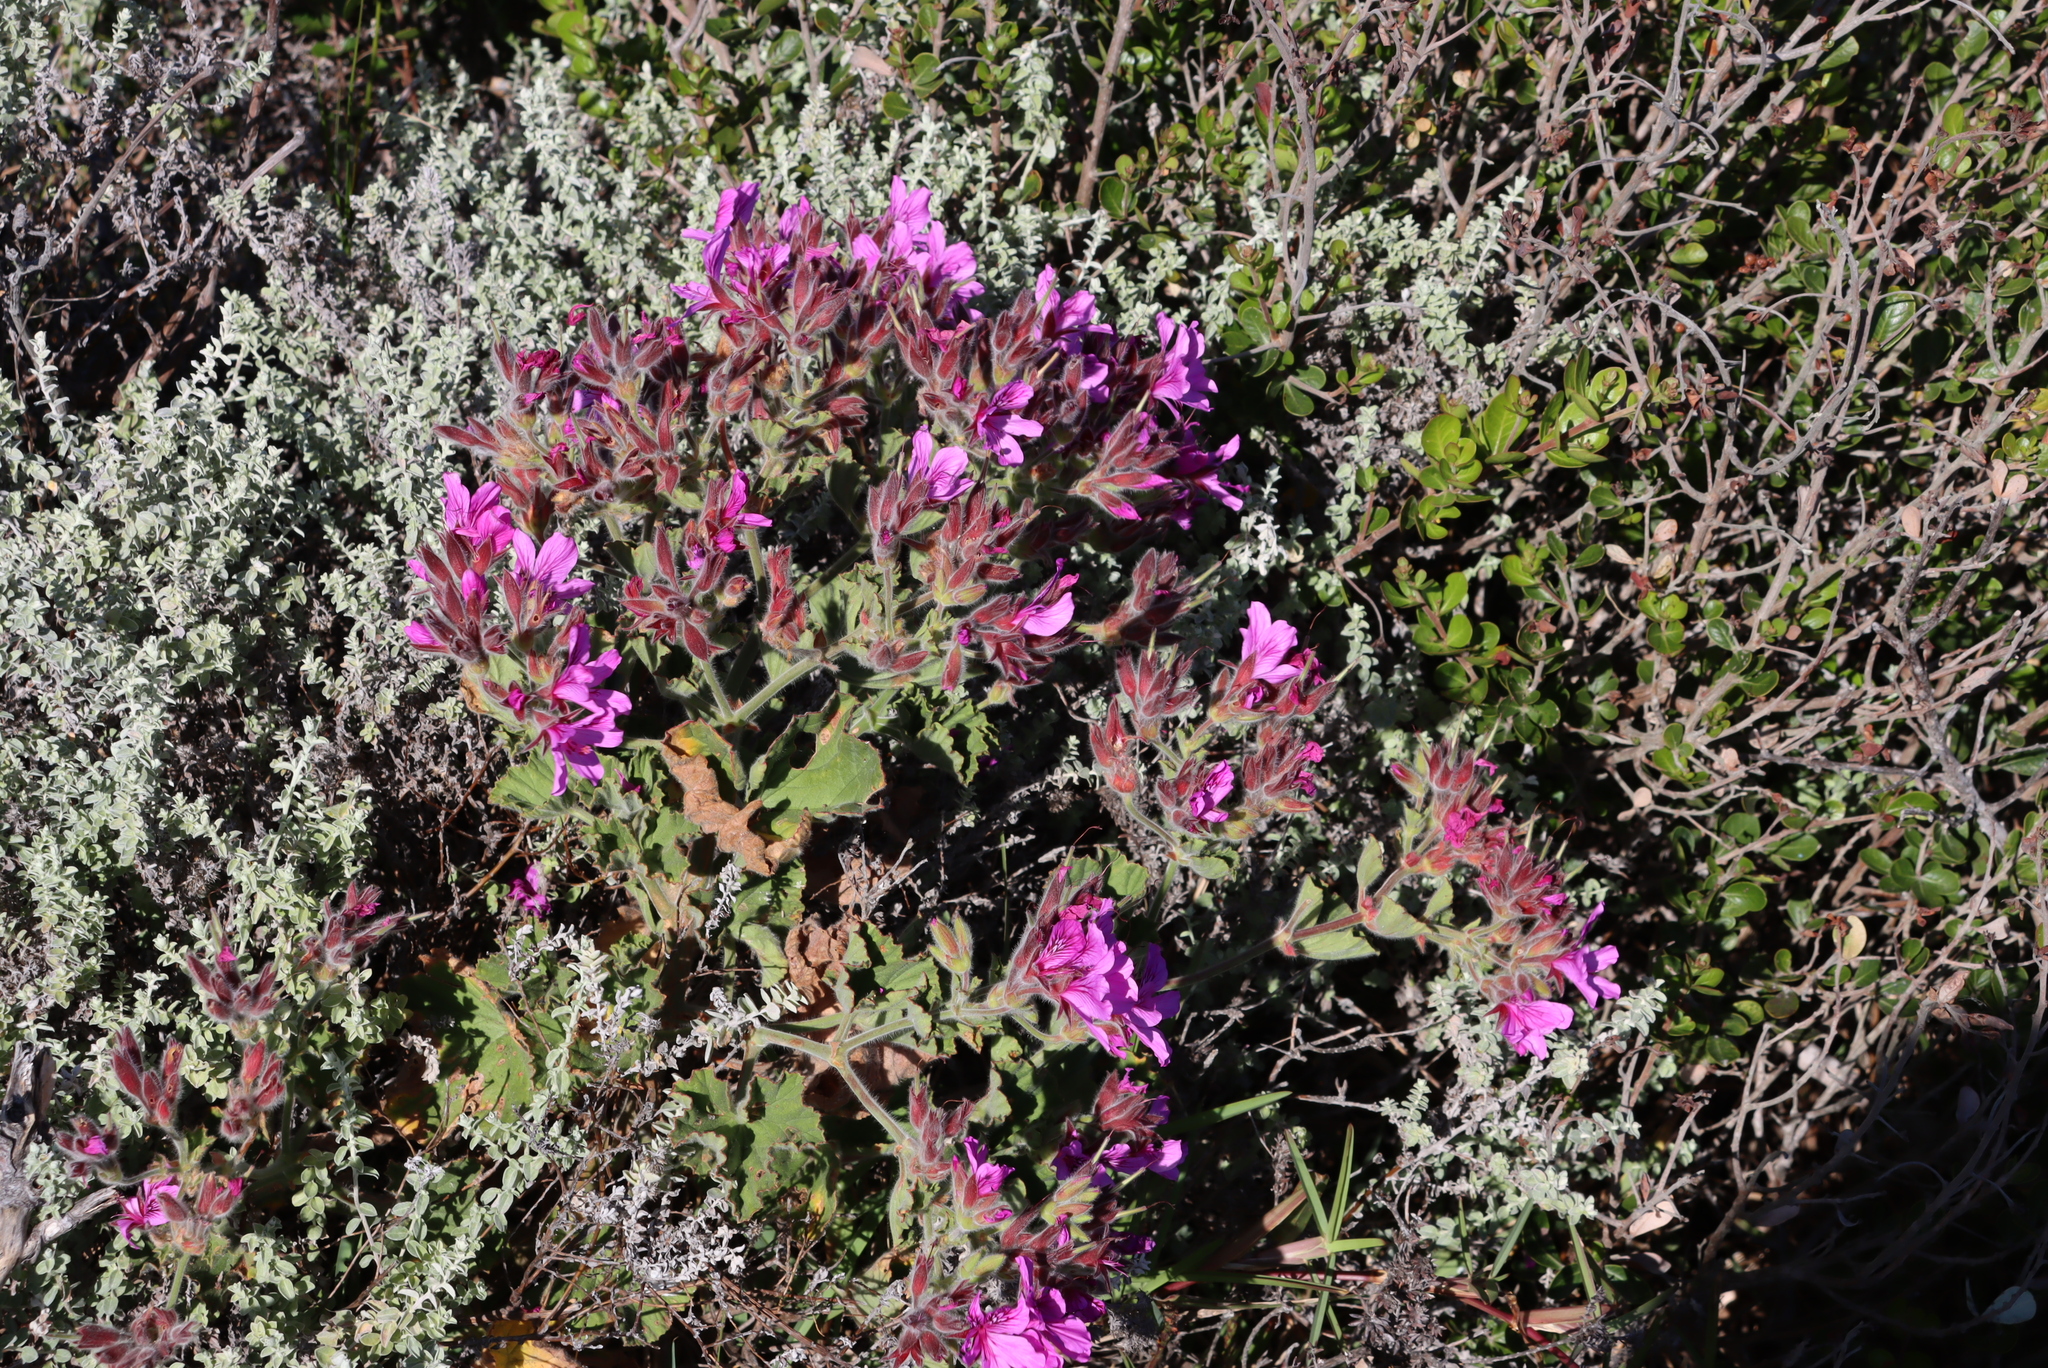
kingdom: Plantae
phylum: Tracheophyta
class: Magnoliopsida
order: Geraniales
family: Geraniaceae
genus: Pelargonium
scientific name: Pelargonium cucullatum
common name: Tree pelargonium
